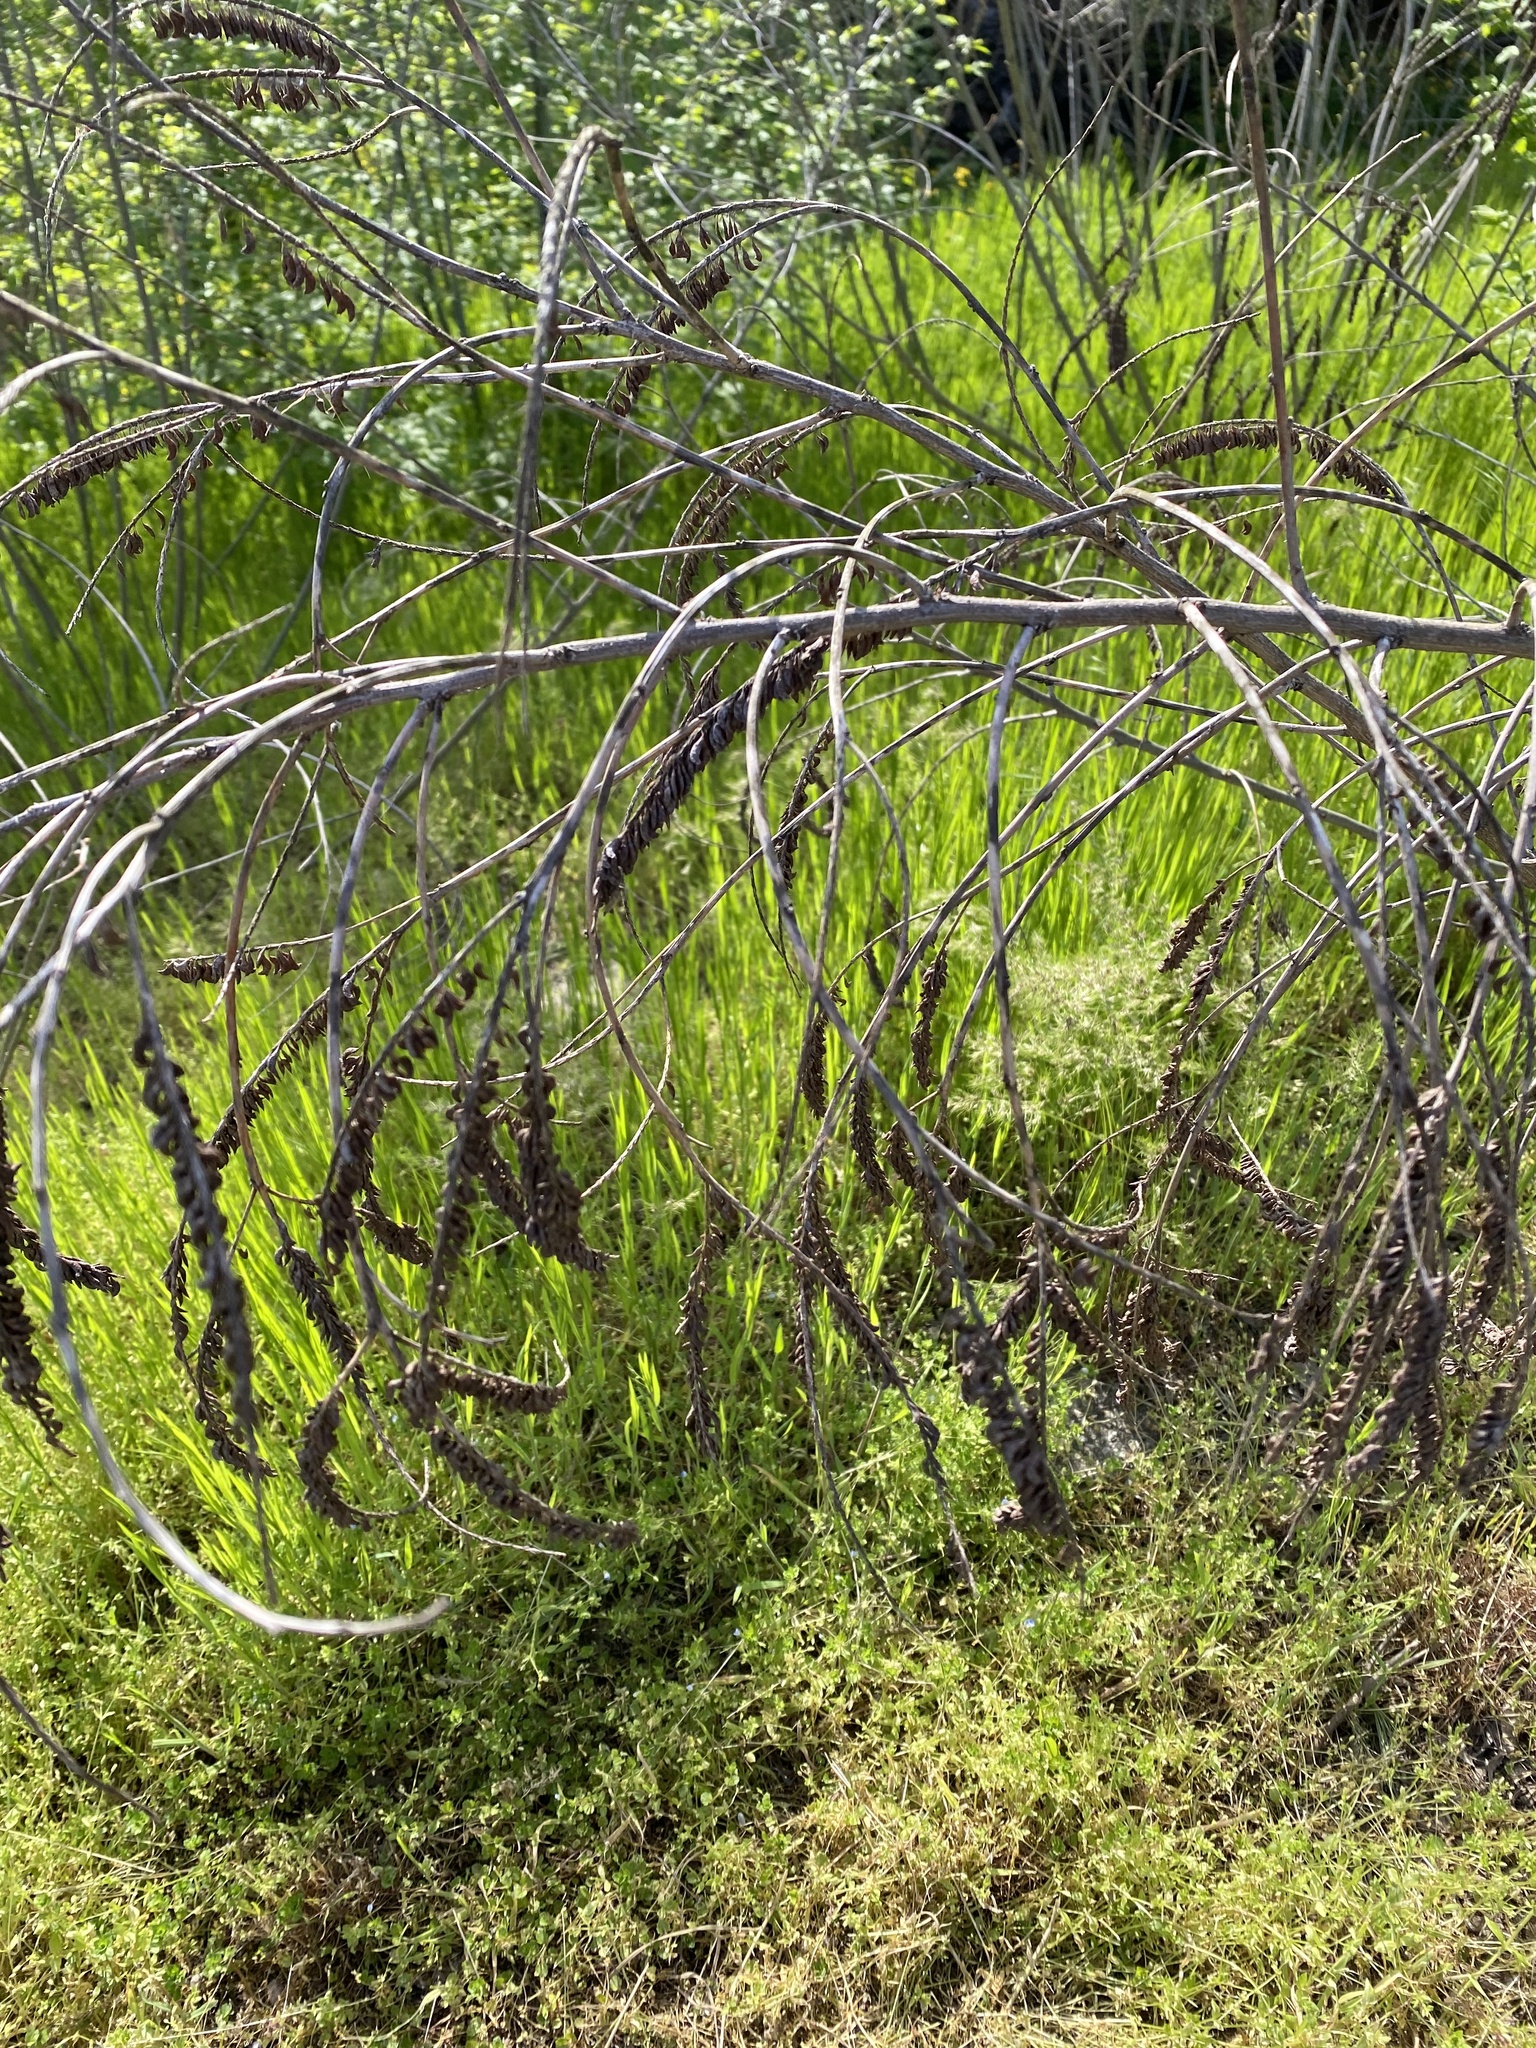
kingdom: Plantae
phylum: Tracheophyta
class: Magnoliopsida
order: Fabales
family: Fabaceae
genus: Amorpha
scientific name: Amorpha fruticosa
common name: False indigo
